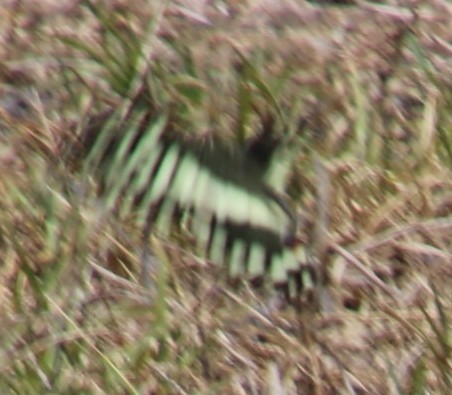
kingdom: Animalia
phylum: Arthropoda
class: Insecta
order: Lepidoptera
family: Papilionidae
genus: Papilio
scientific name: Papilio demodocus
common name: Christmas butterfly
